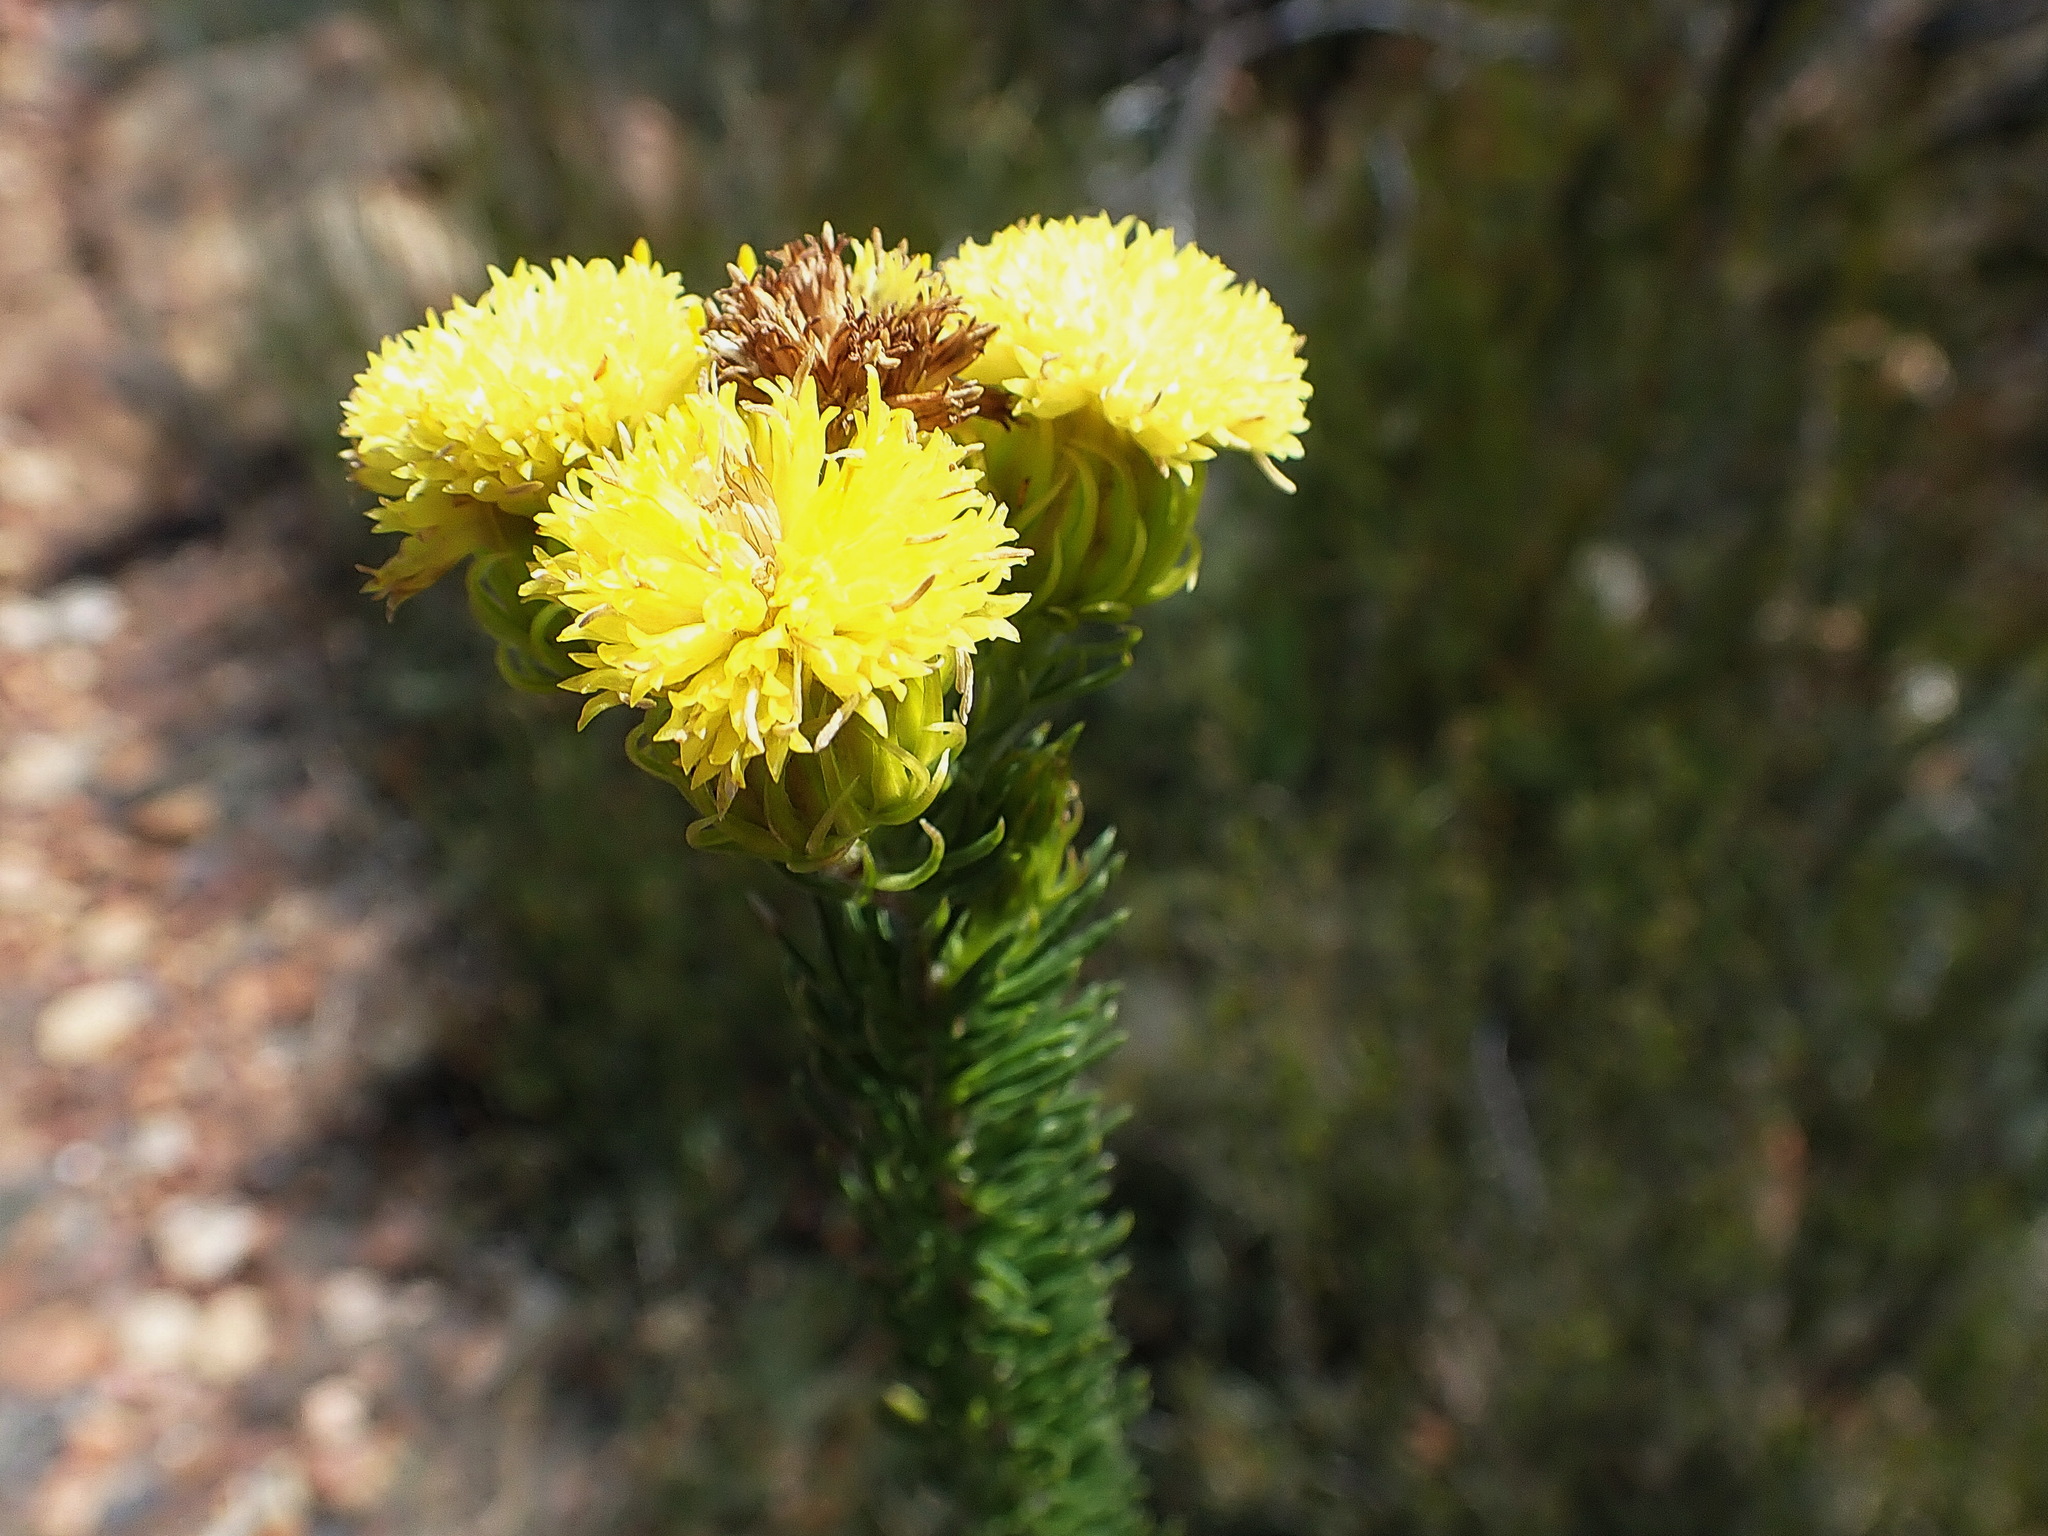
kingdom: Plantae
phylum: Tracheophyta
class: Magnoliopsida
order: Asterales
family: Asteraceae
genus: Pteronia
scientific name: Pteronia camphorata
